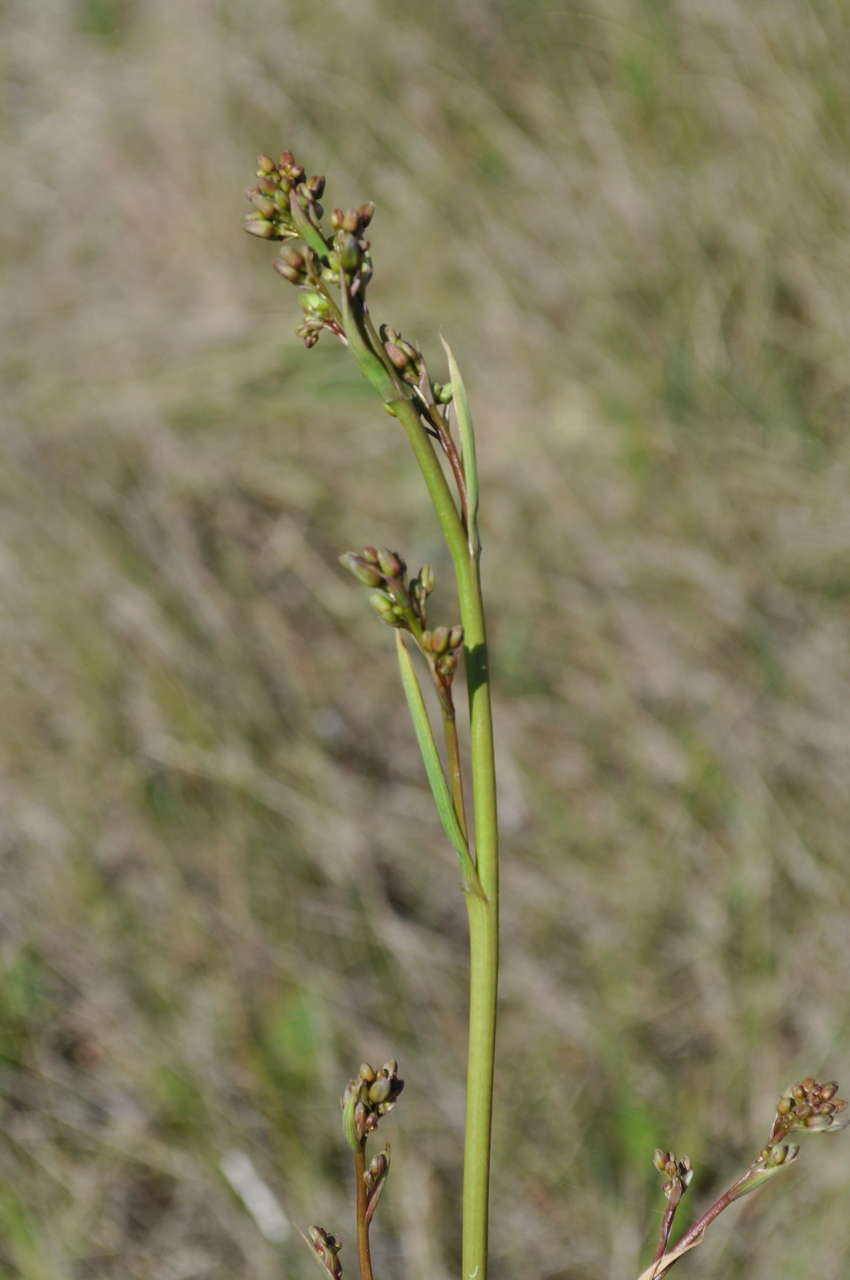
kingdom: Plantae
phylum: Tracheophyta
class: Liliopsida
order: Asparagales
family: Asphodelaceae
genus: Dianella
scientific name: Dianella callicarpa
